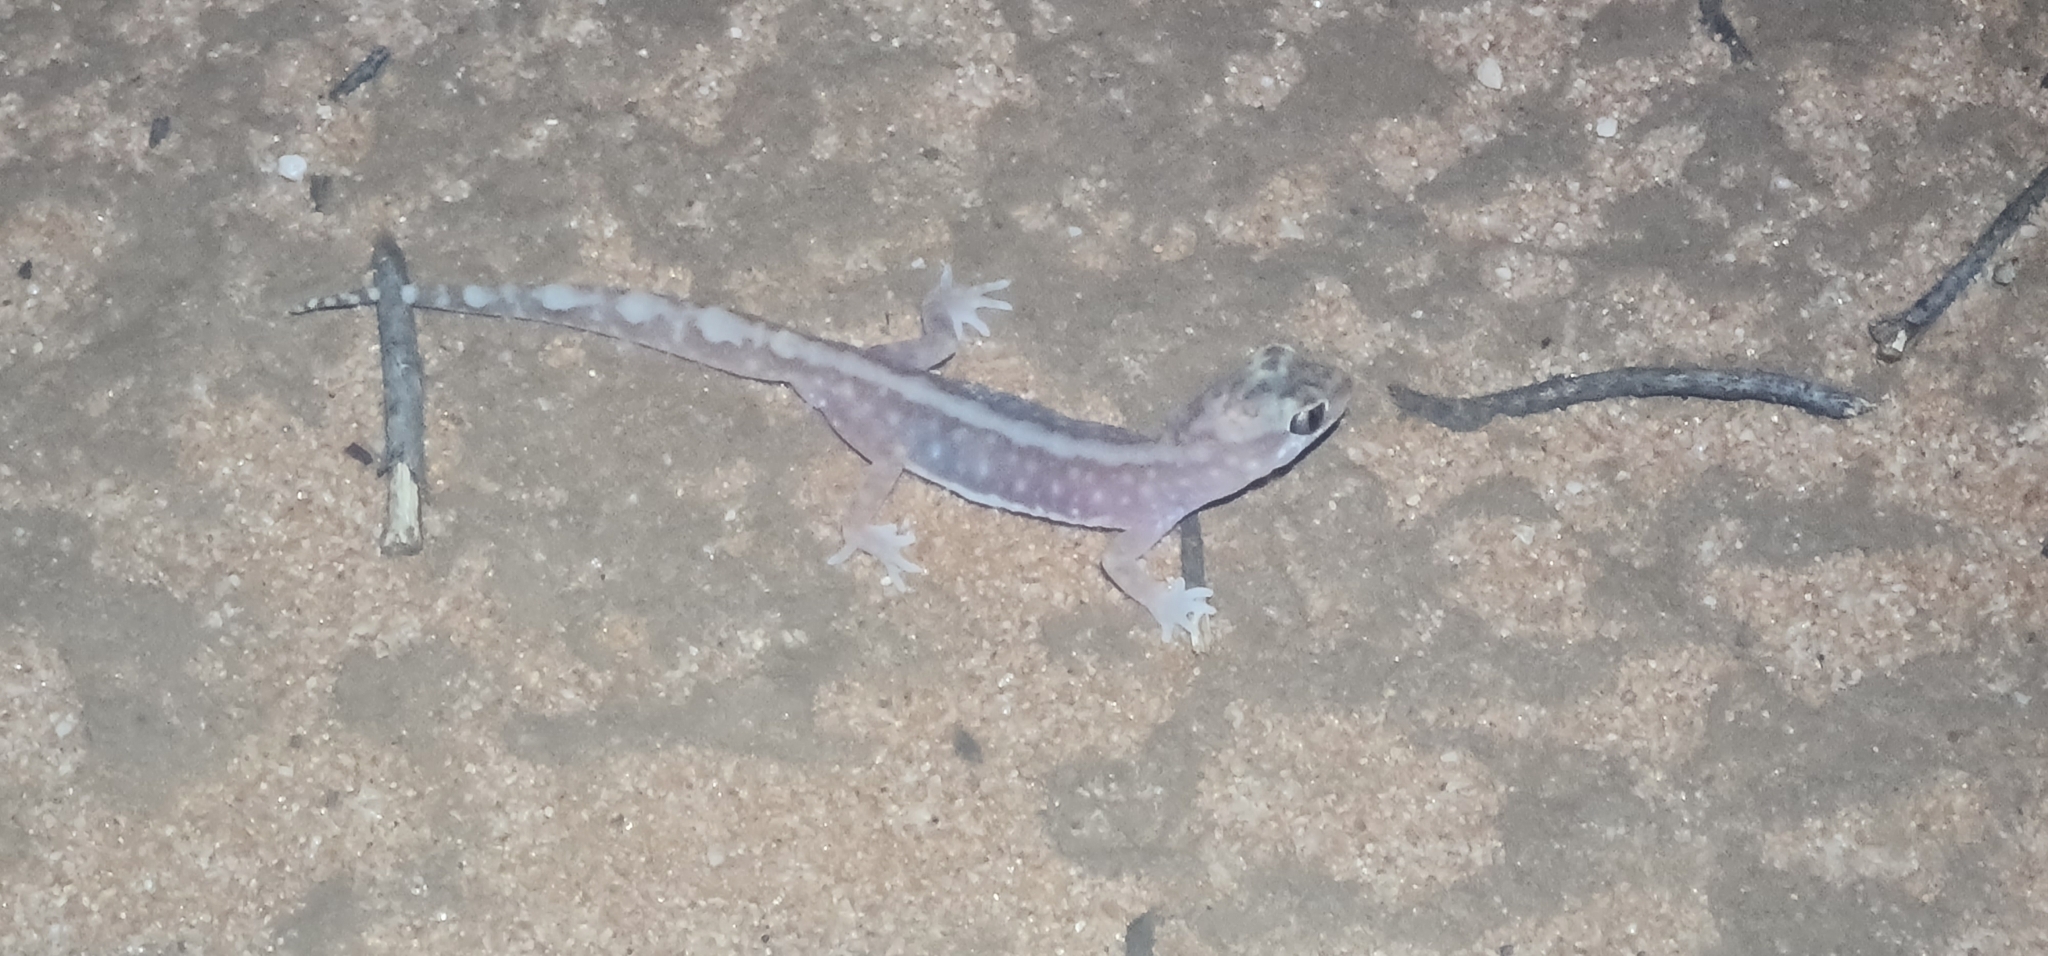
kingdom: Animalia
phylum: Chordata
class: Squamata
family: Diplodactylidae
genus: Lucasium
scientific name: Lucasium damaeum
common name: Beaded gecko
